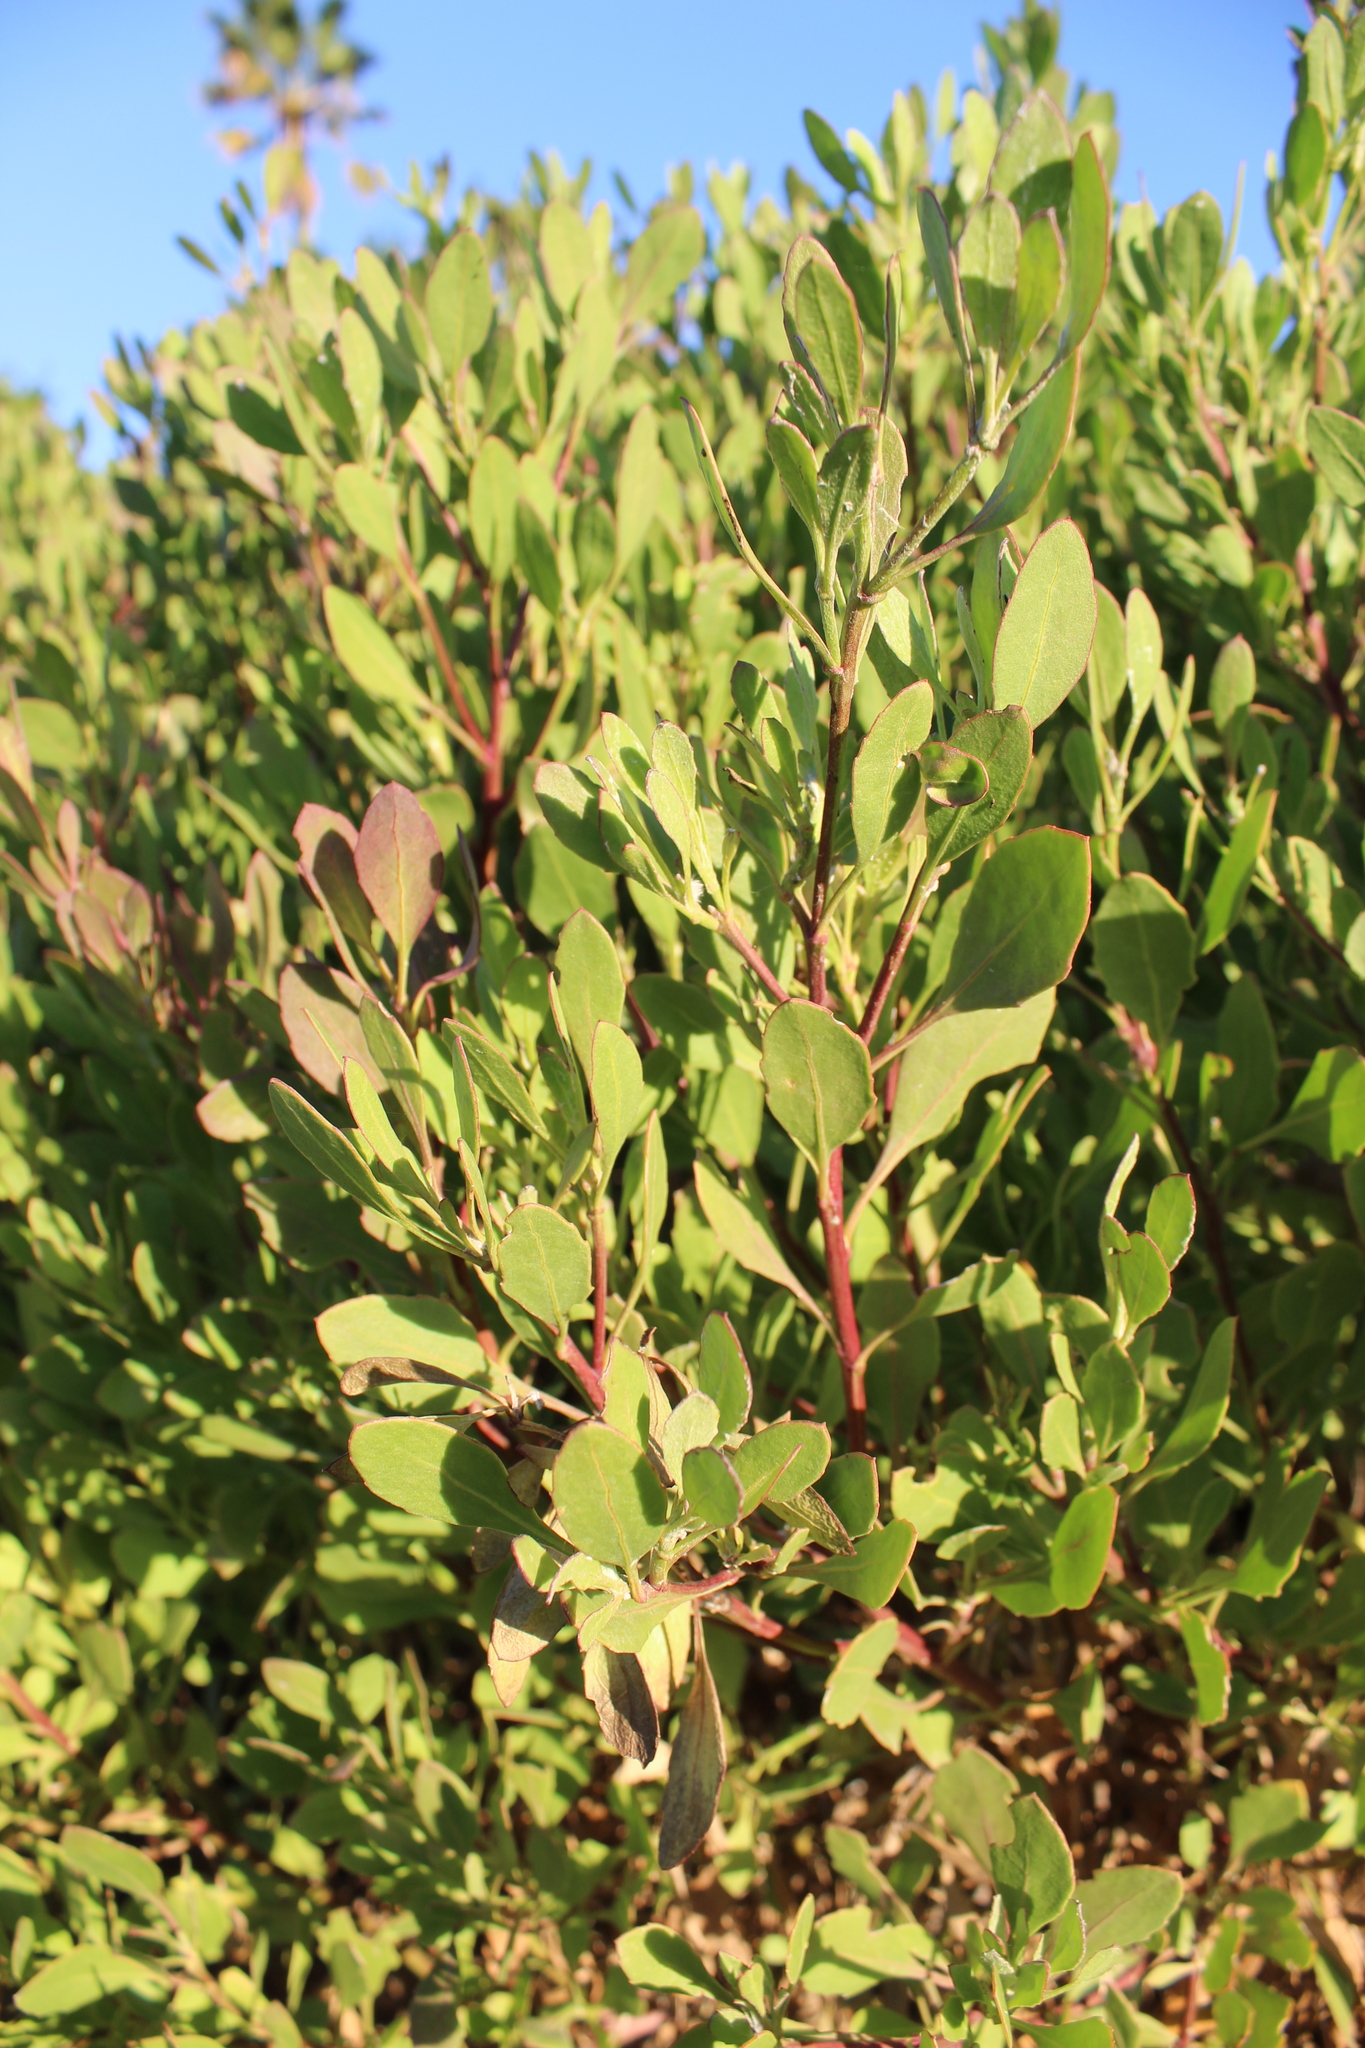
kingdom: Plantae
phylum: Tracheophyta
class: Magnoliopsida
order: Asterales
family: Asteraceae
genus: Osteospermum
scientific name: Osteospermum moniliferum
